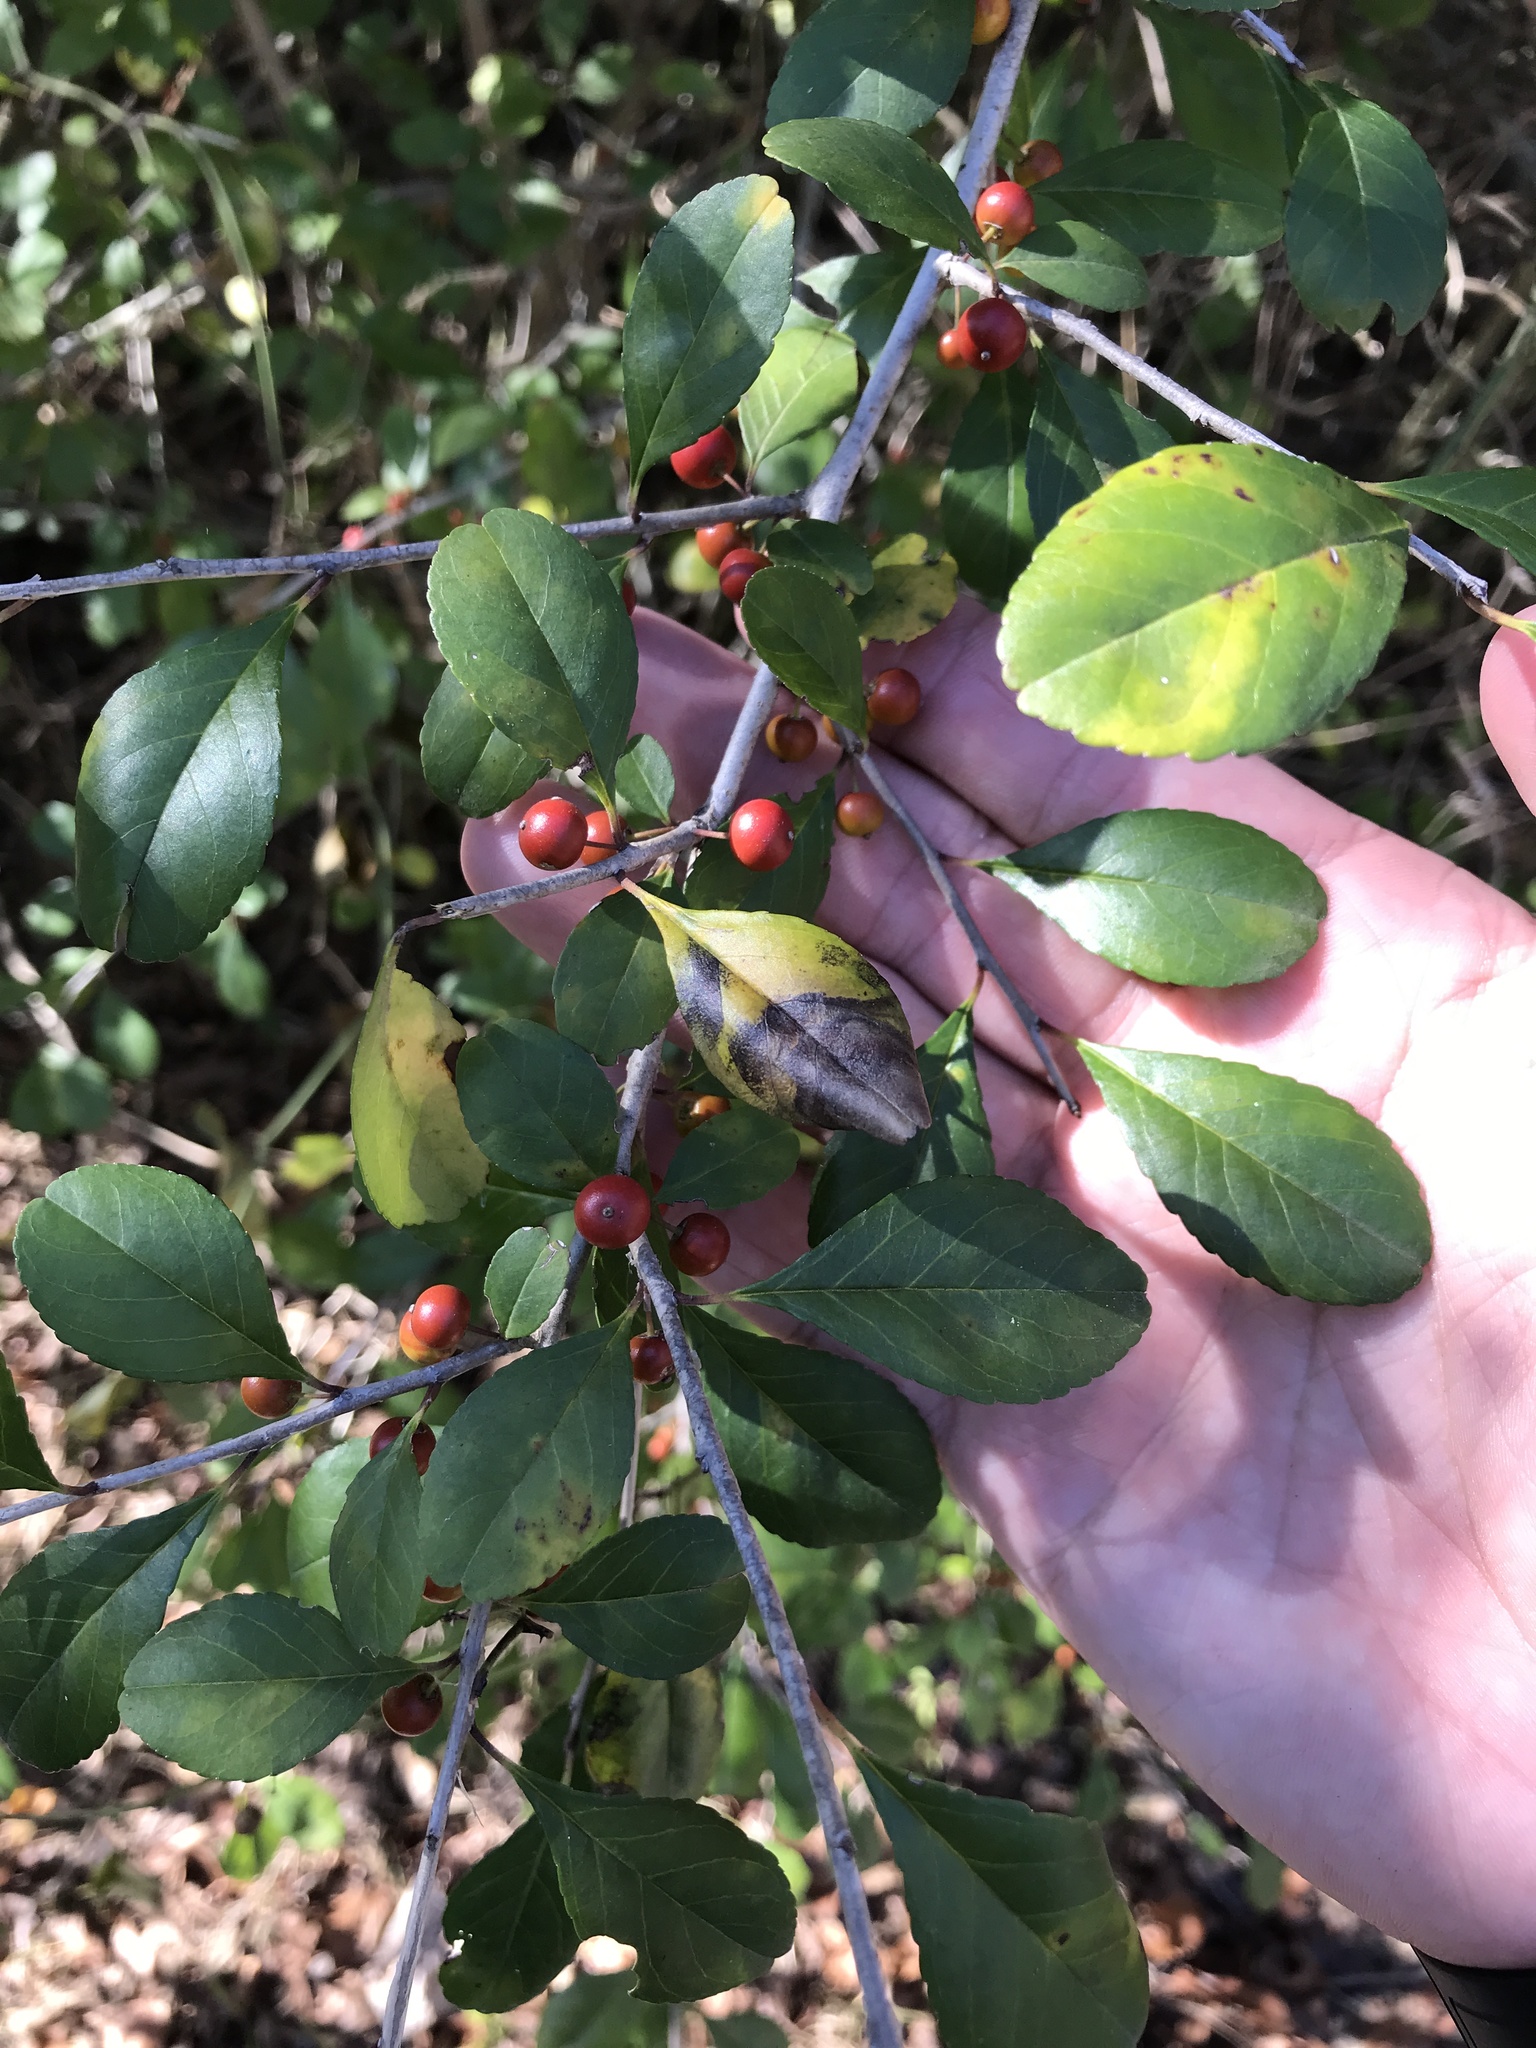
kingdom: Plantae
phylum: Tracheophyta
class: Magnoliopsida
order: Aquifoliales
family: Aquifoliaceae
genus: Ilex
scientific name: Ilex decidua
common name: Possum-haw
